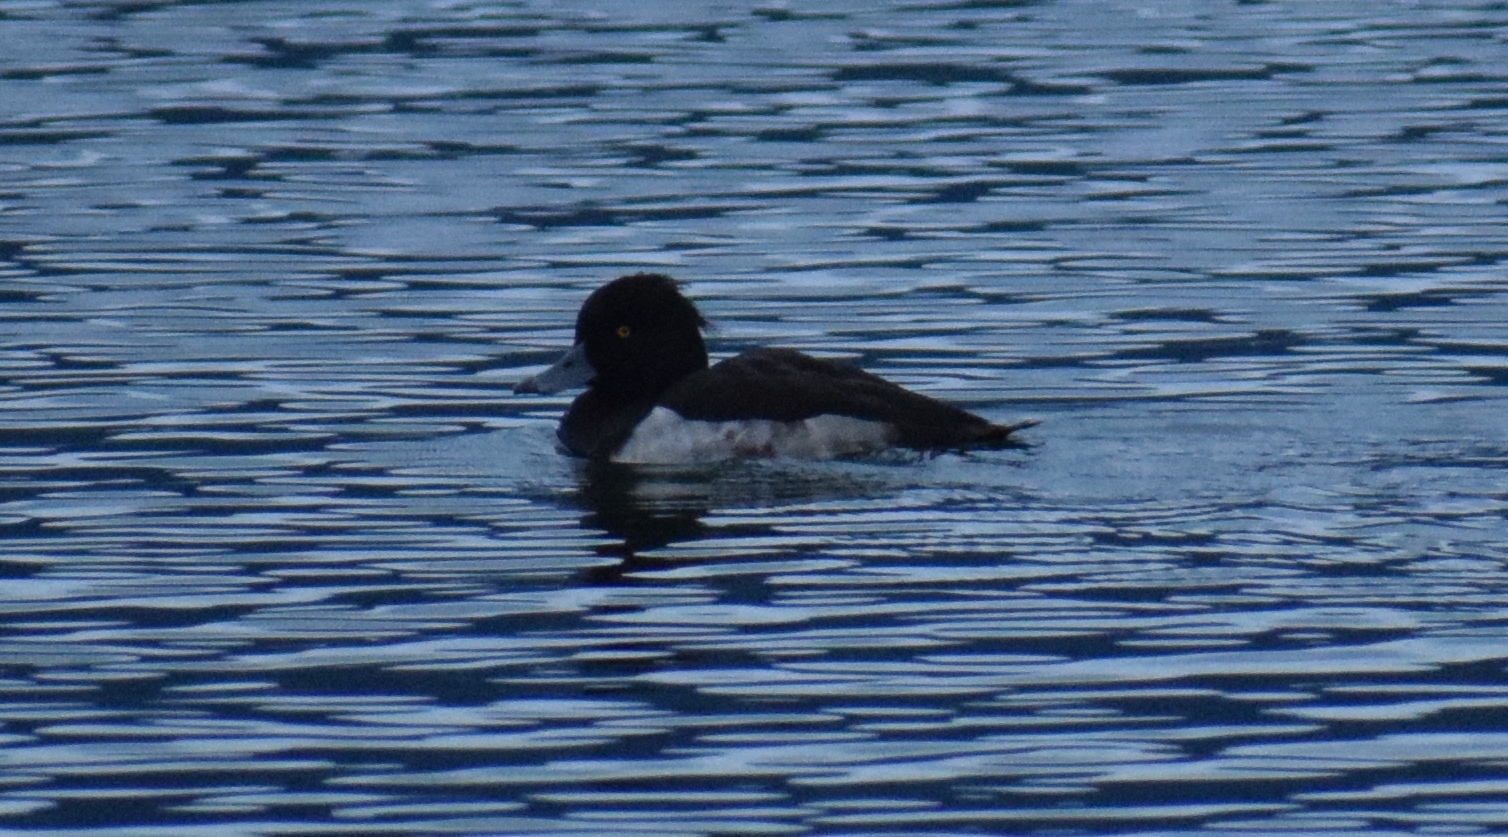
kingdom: Animalia
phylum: Chordata
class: Aves
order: Anseriformes
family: Anatidae
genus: Aythya
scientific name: Aythya fuligula
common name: Tufted duck
